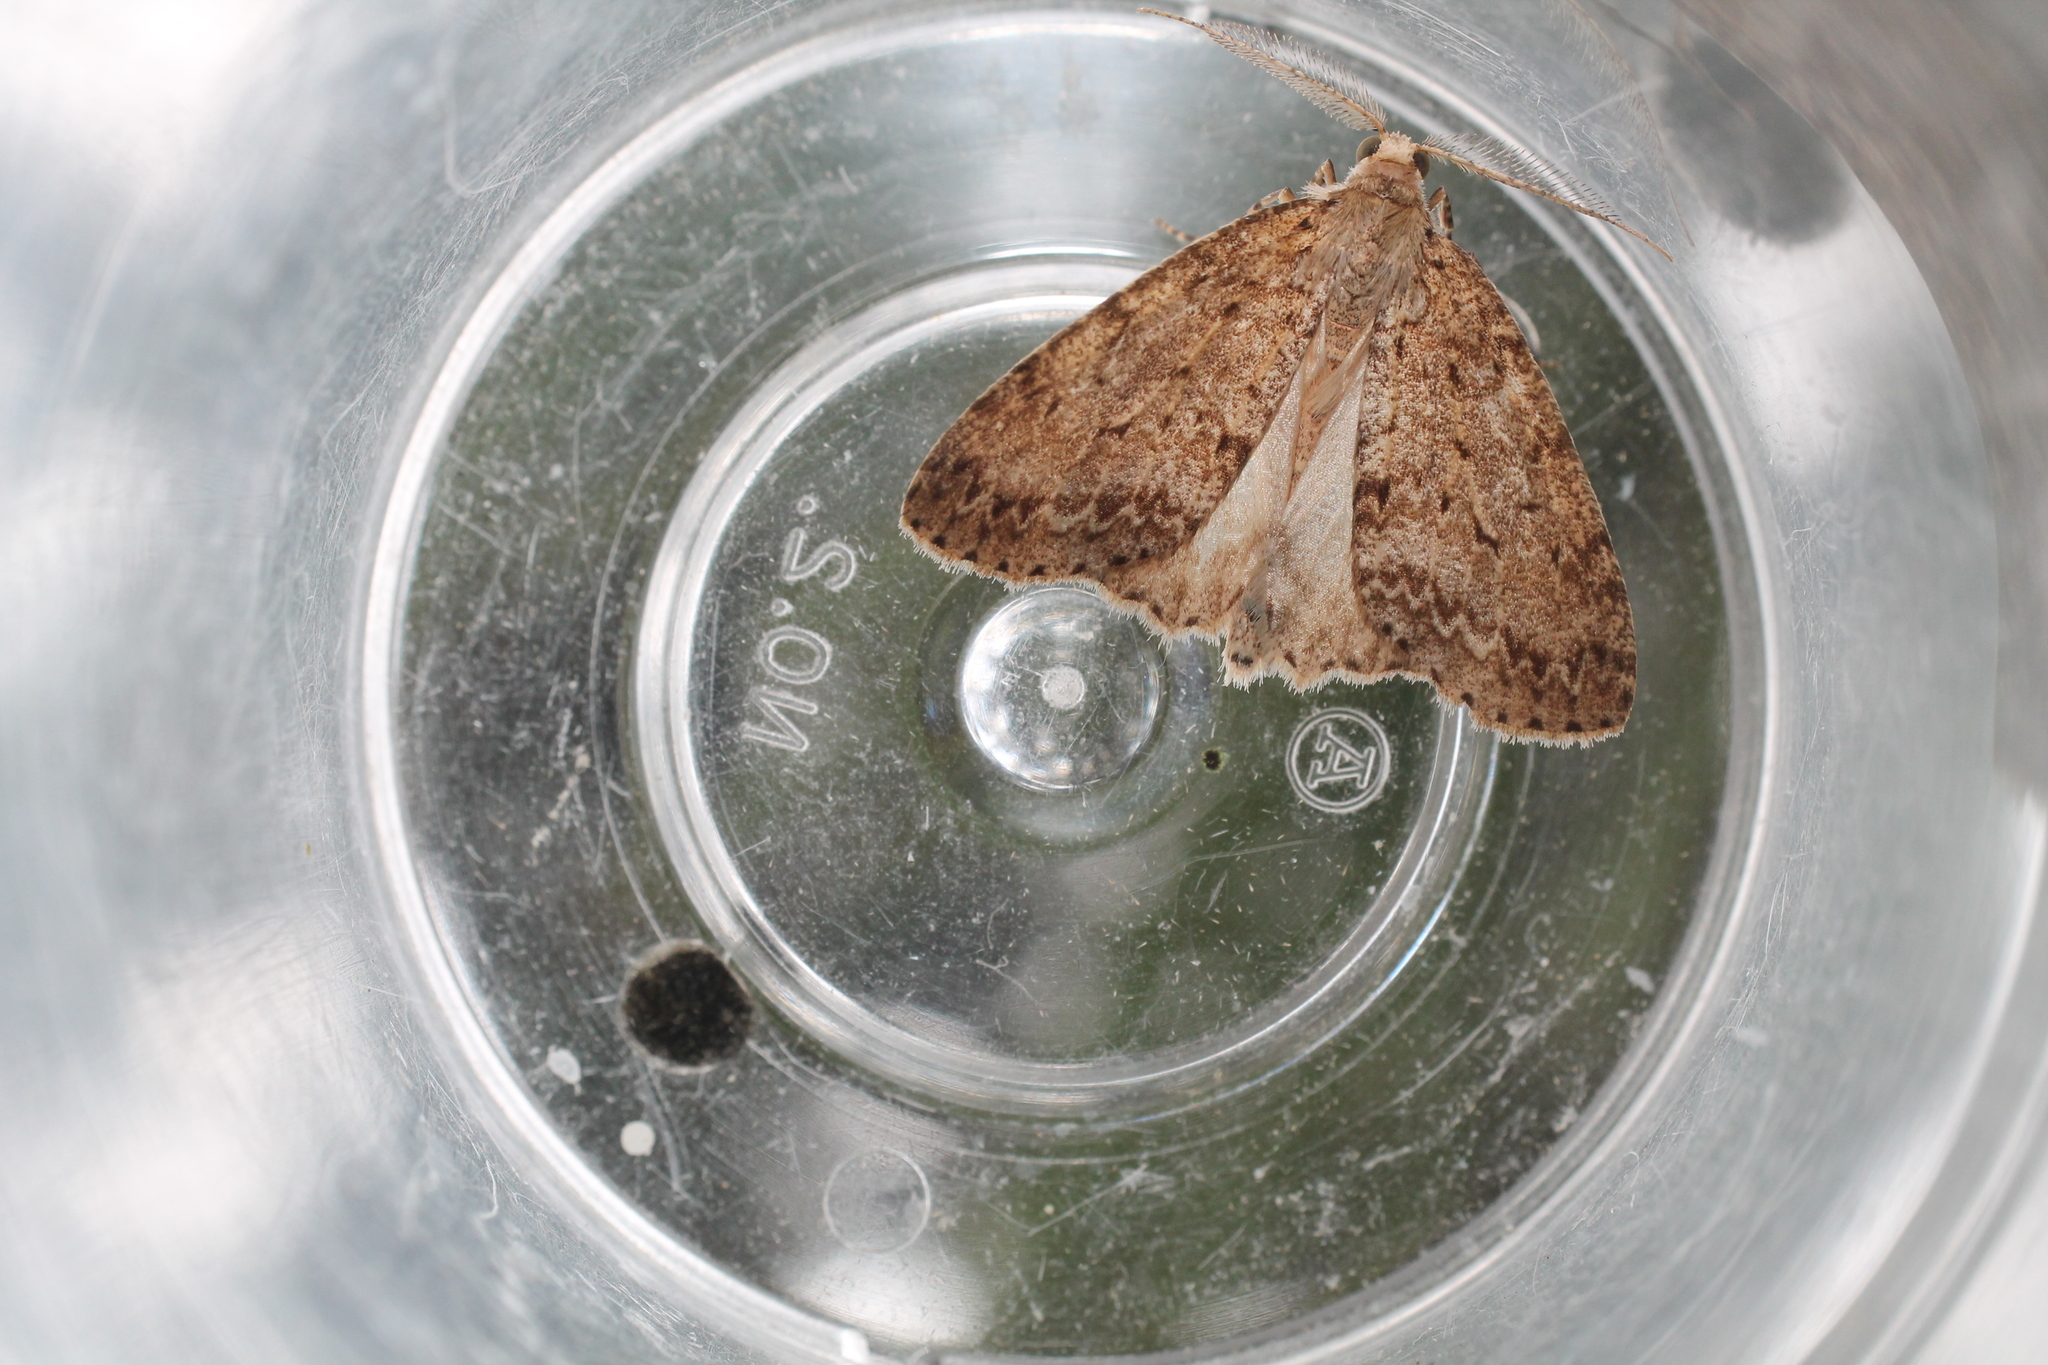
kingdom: Animalia
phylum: Arthropoda
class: Insecta
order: Lepidoptera
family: Geometridae
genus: Pseudocoremia
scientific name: Pseudocoremia fenerata
